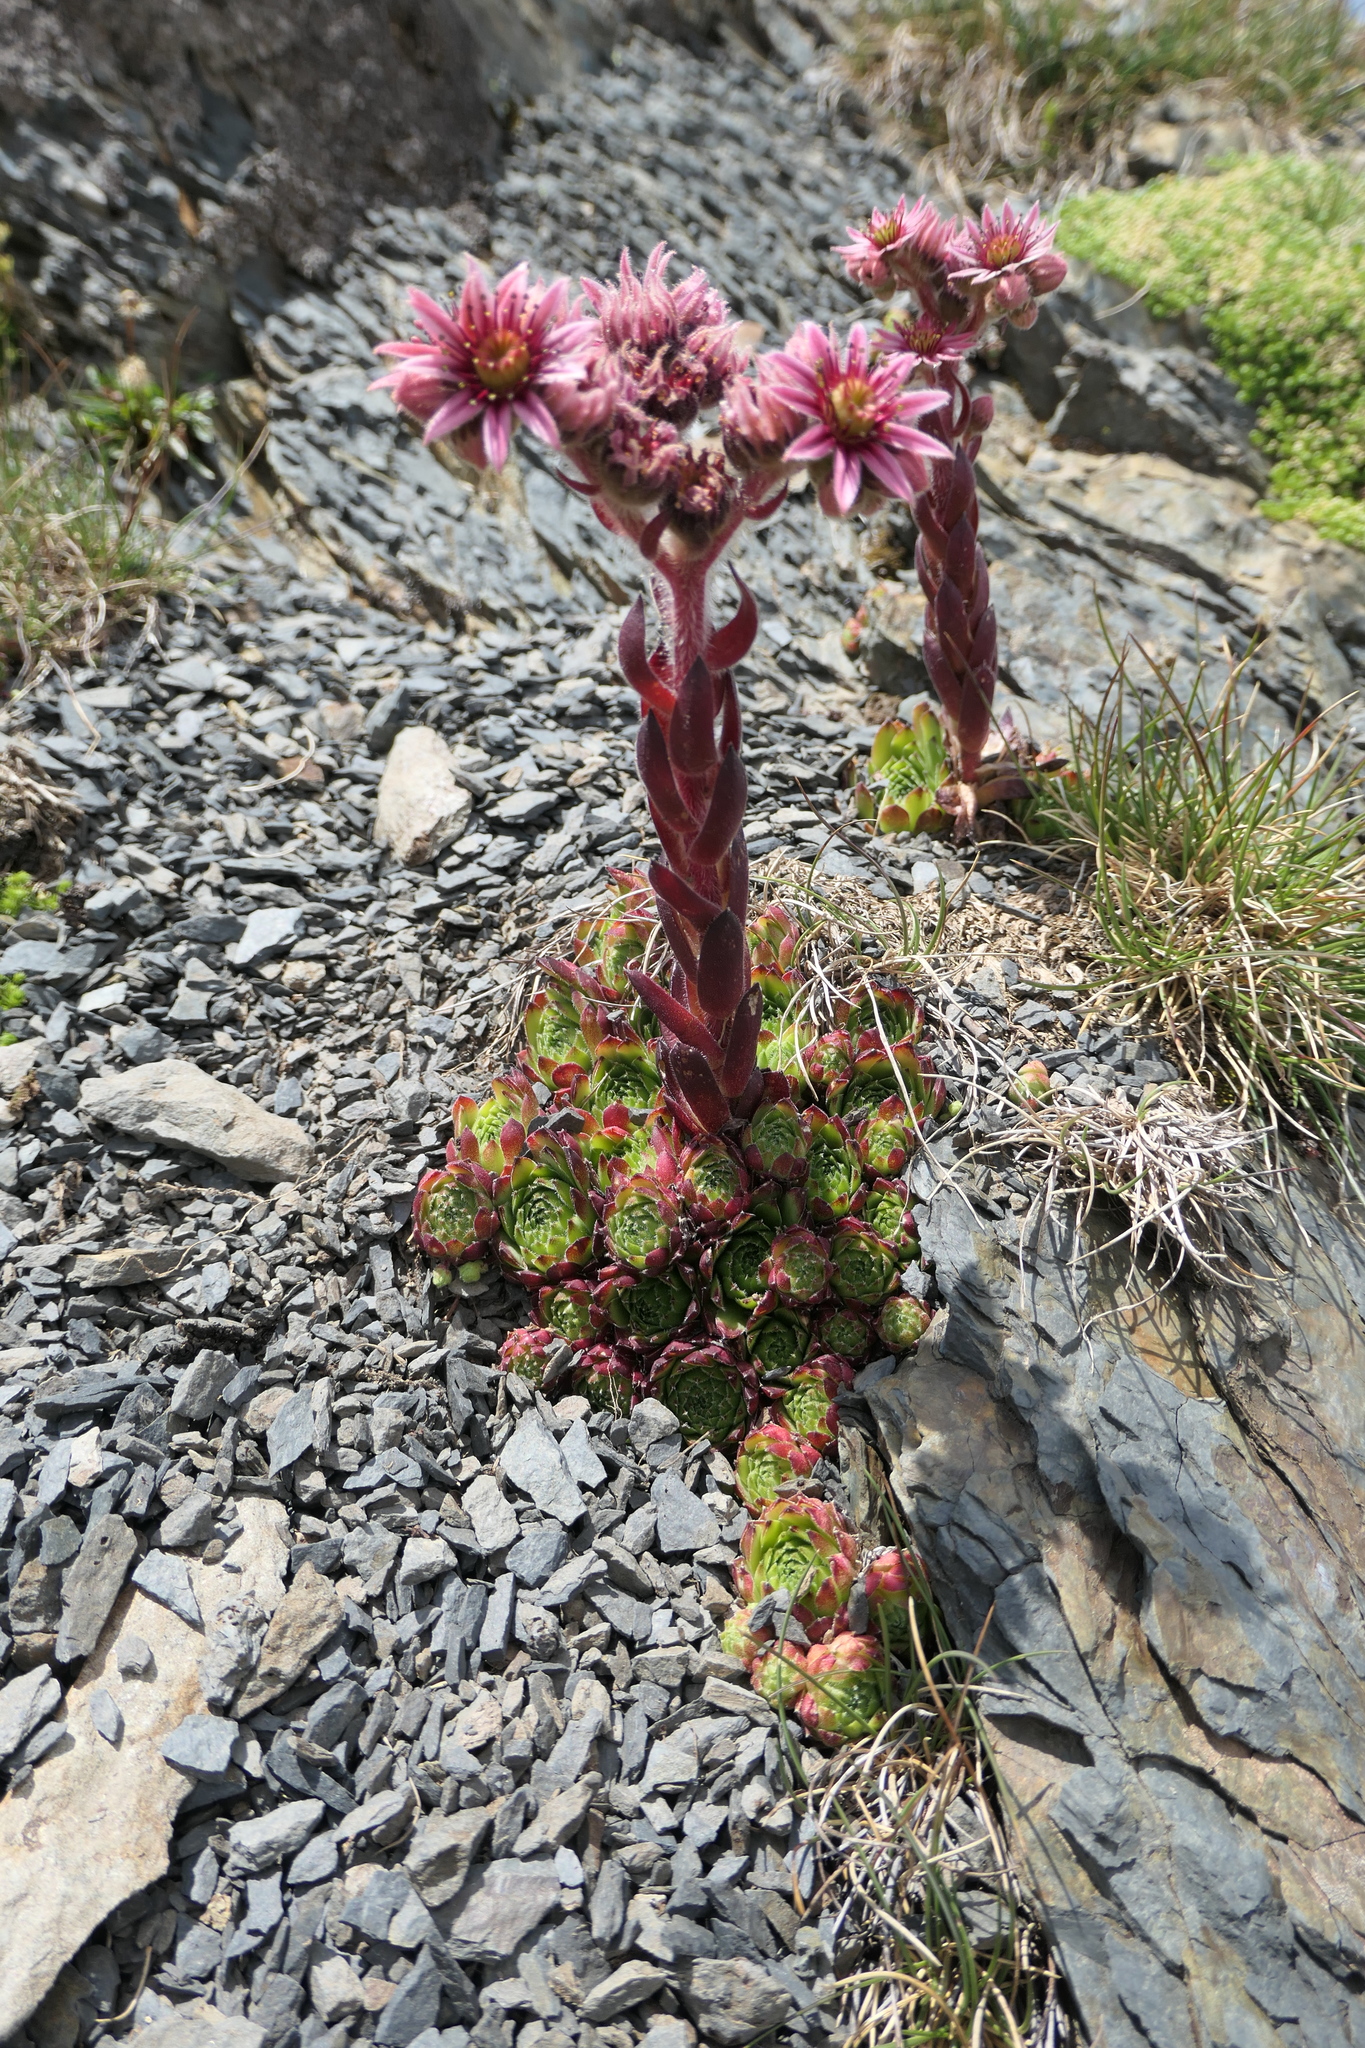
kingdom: Plantae
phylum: Tracheophyta
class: Magnoliopsida
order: Saxifragales
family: Crassulaceae
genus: Sempervivum
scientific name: Sempervivum alatum
